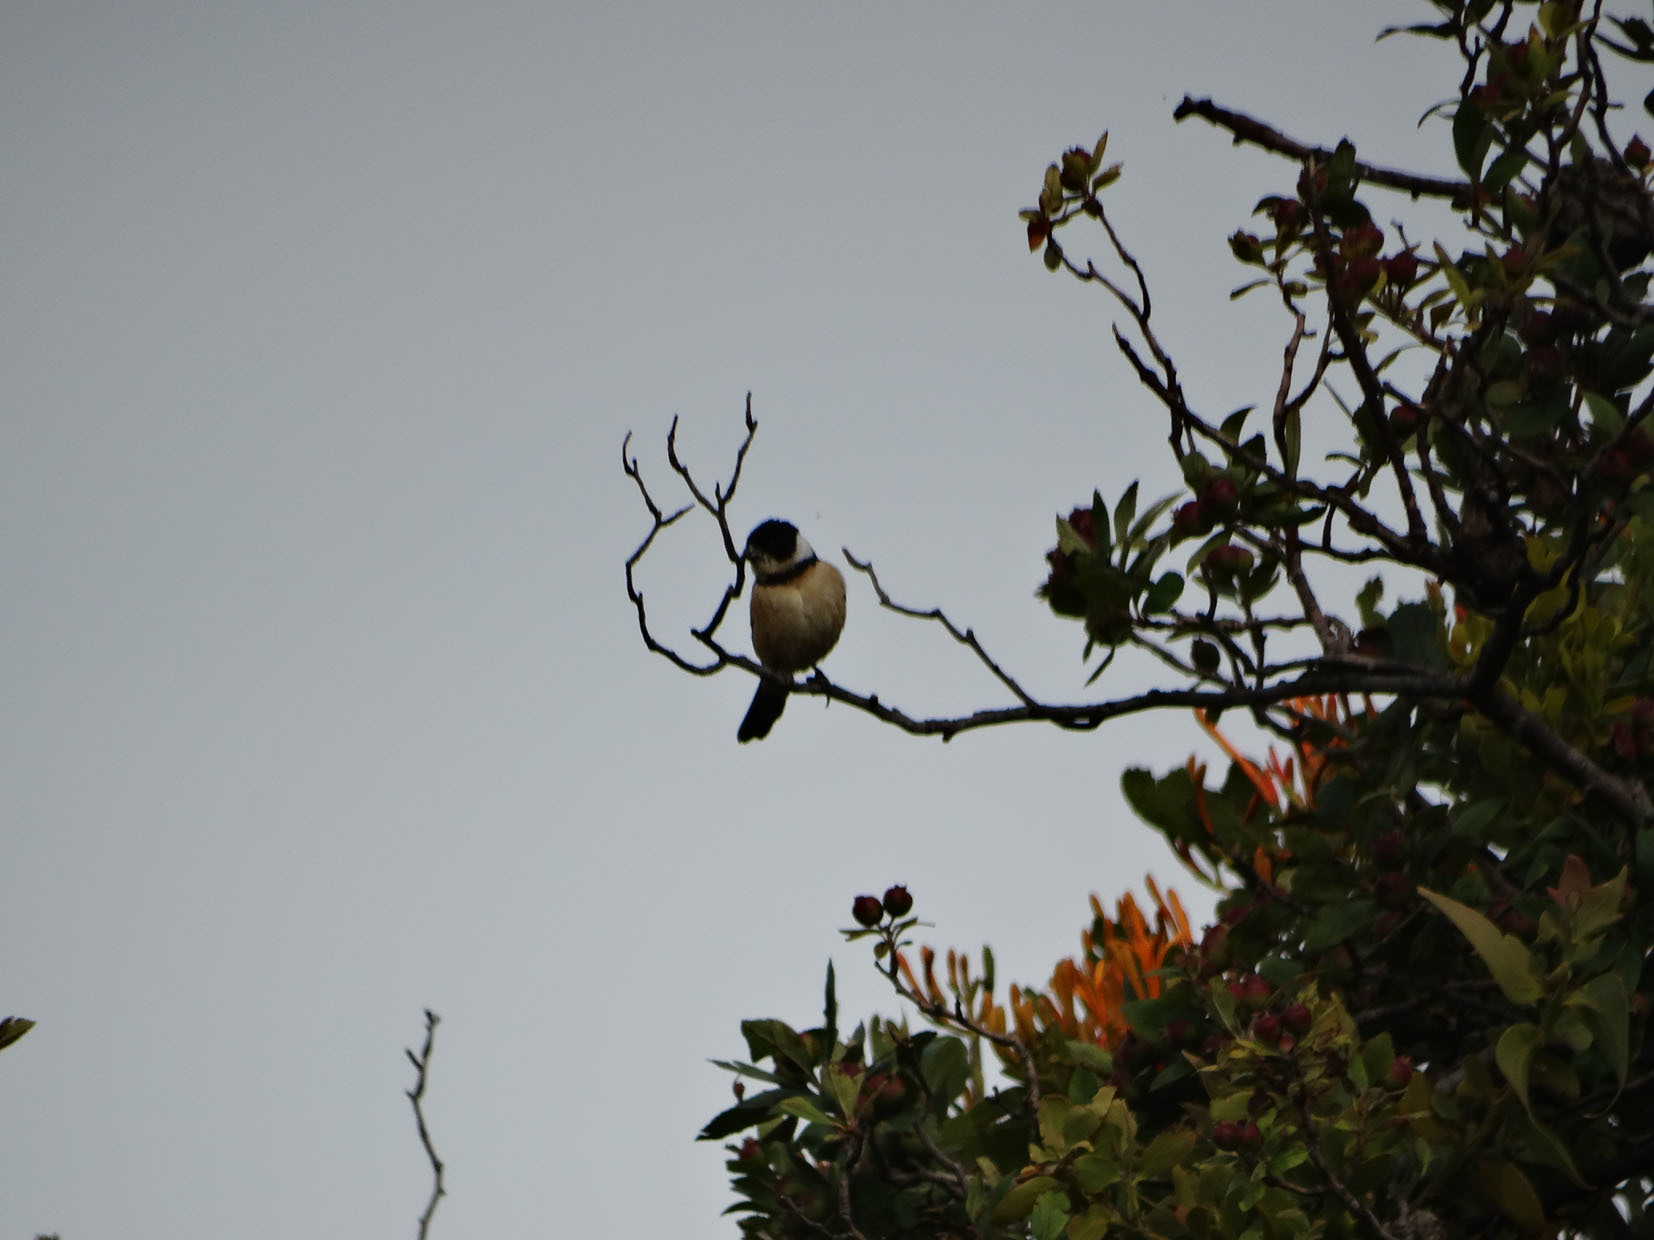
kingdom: Animalia
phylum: Chordata
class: Aves
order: Passeriformes
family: Thraupidae
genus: Sporophila
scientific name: Sporophila torqueola
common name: White-collared seedeater
